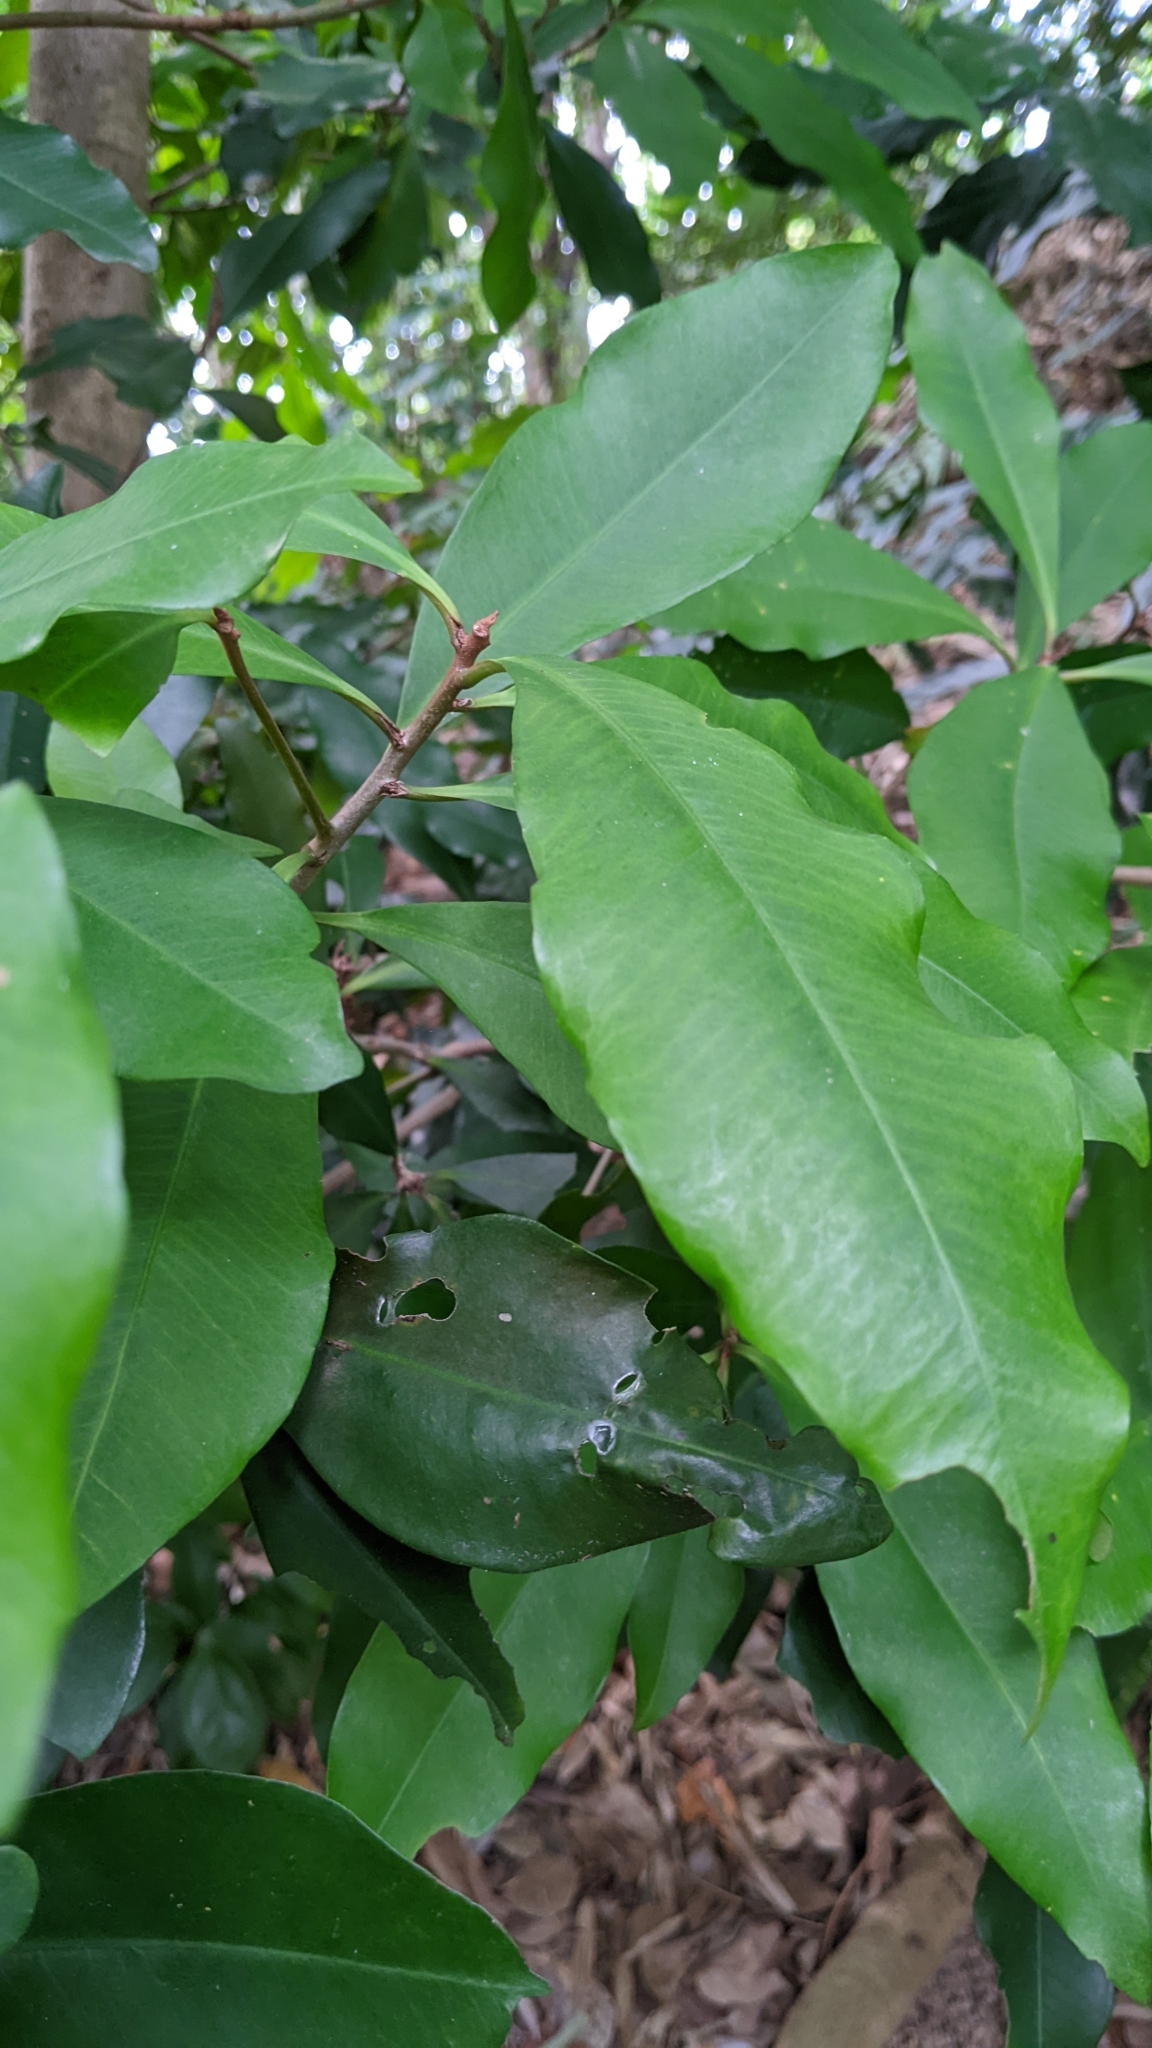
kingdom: Plantae
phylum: Tracheophyta
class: Magnoliopsida
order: Ericales
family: Primulaceae
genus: Ardisia
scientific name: Ardisia sieboldii
